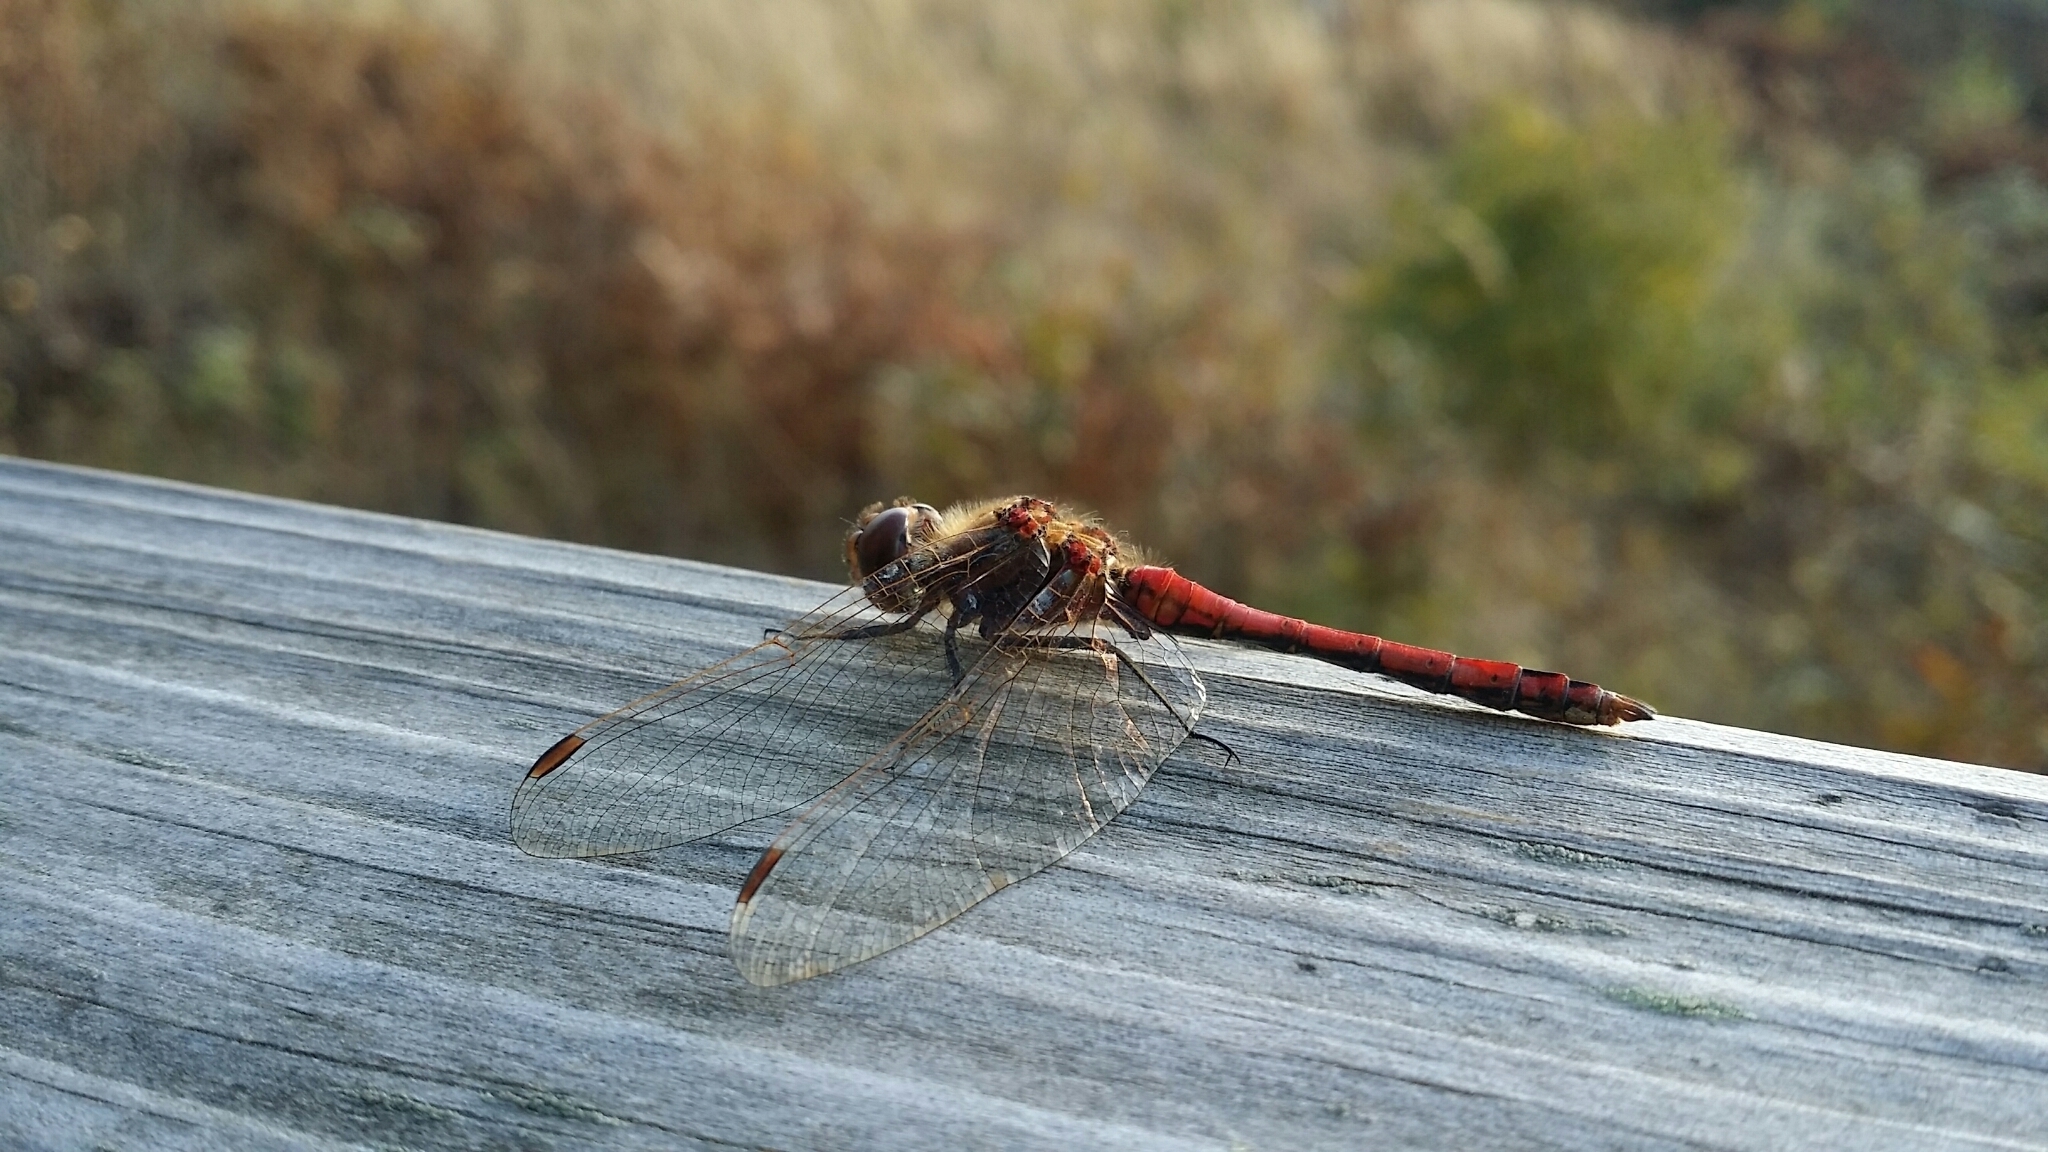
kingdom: Animalia
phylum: Arthropoda
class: Insecta
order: Odonata
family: Libellulidae
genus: Sympetrum
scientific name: Sympetrum vulgatum
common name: Vagrant darter
